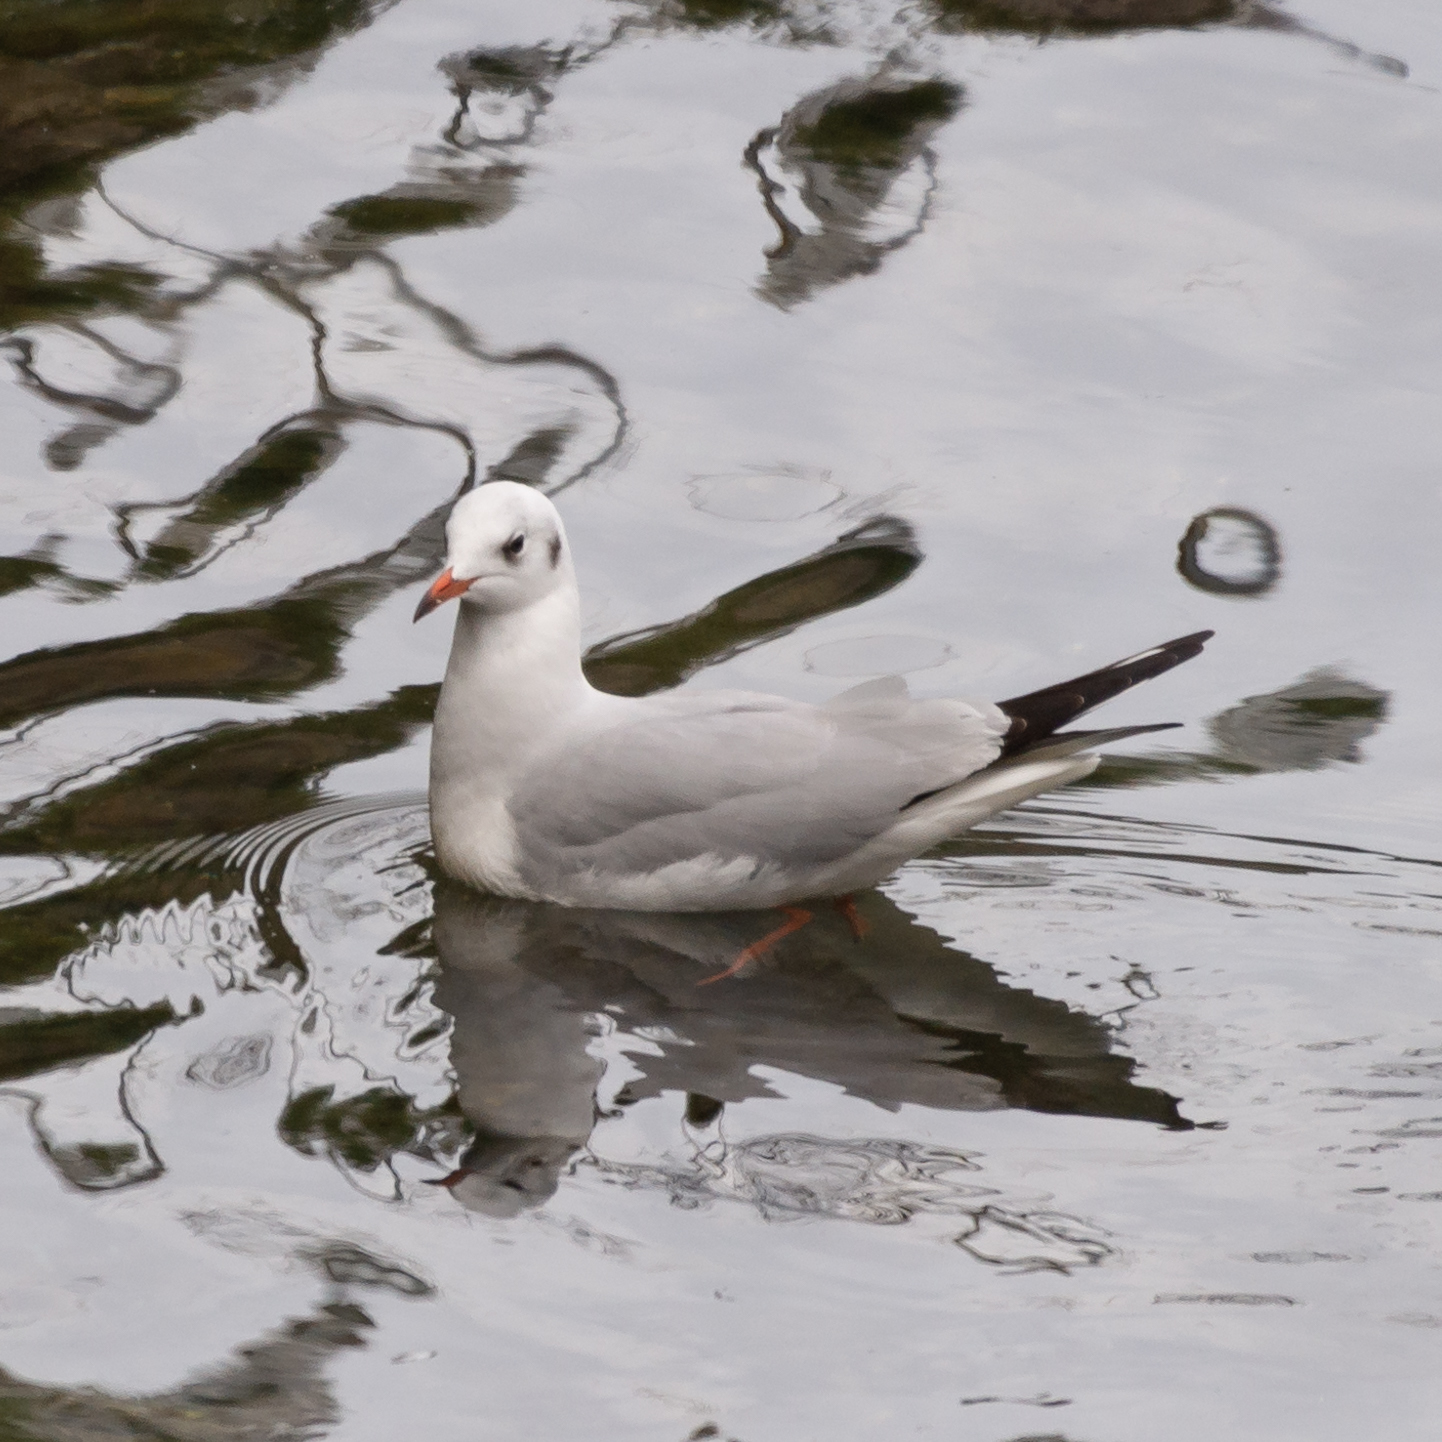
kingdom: Animalia
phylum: Chordata
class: Aves
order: Charadriiformes
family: Laridae
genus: Chroicocephalus
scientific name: Chroicocephalus ridibundus
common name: Black-headed gull
